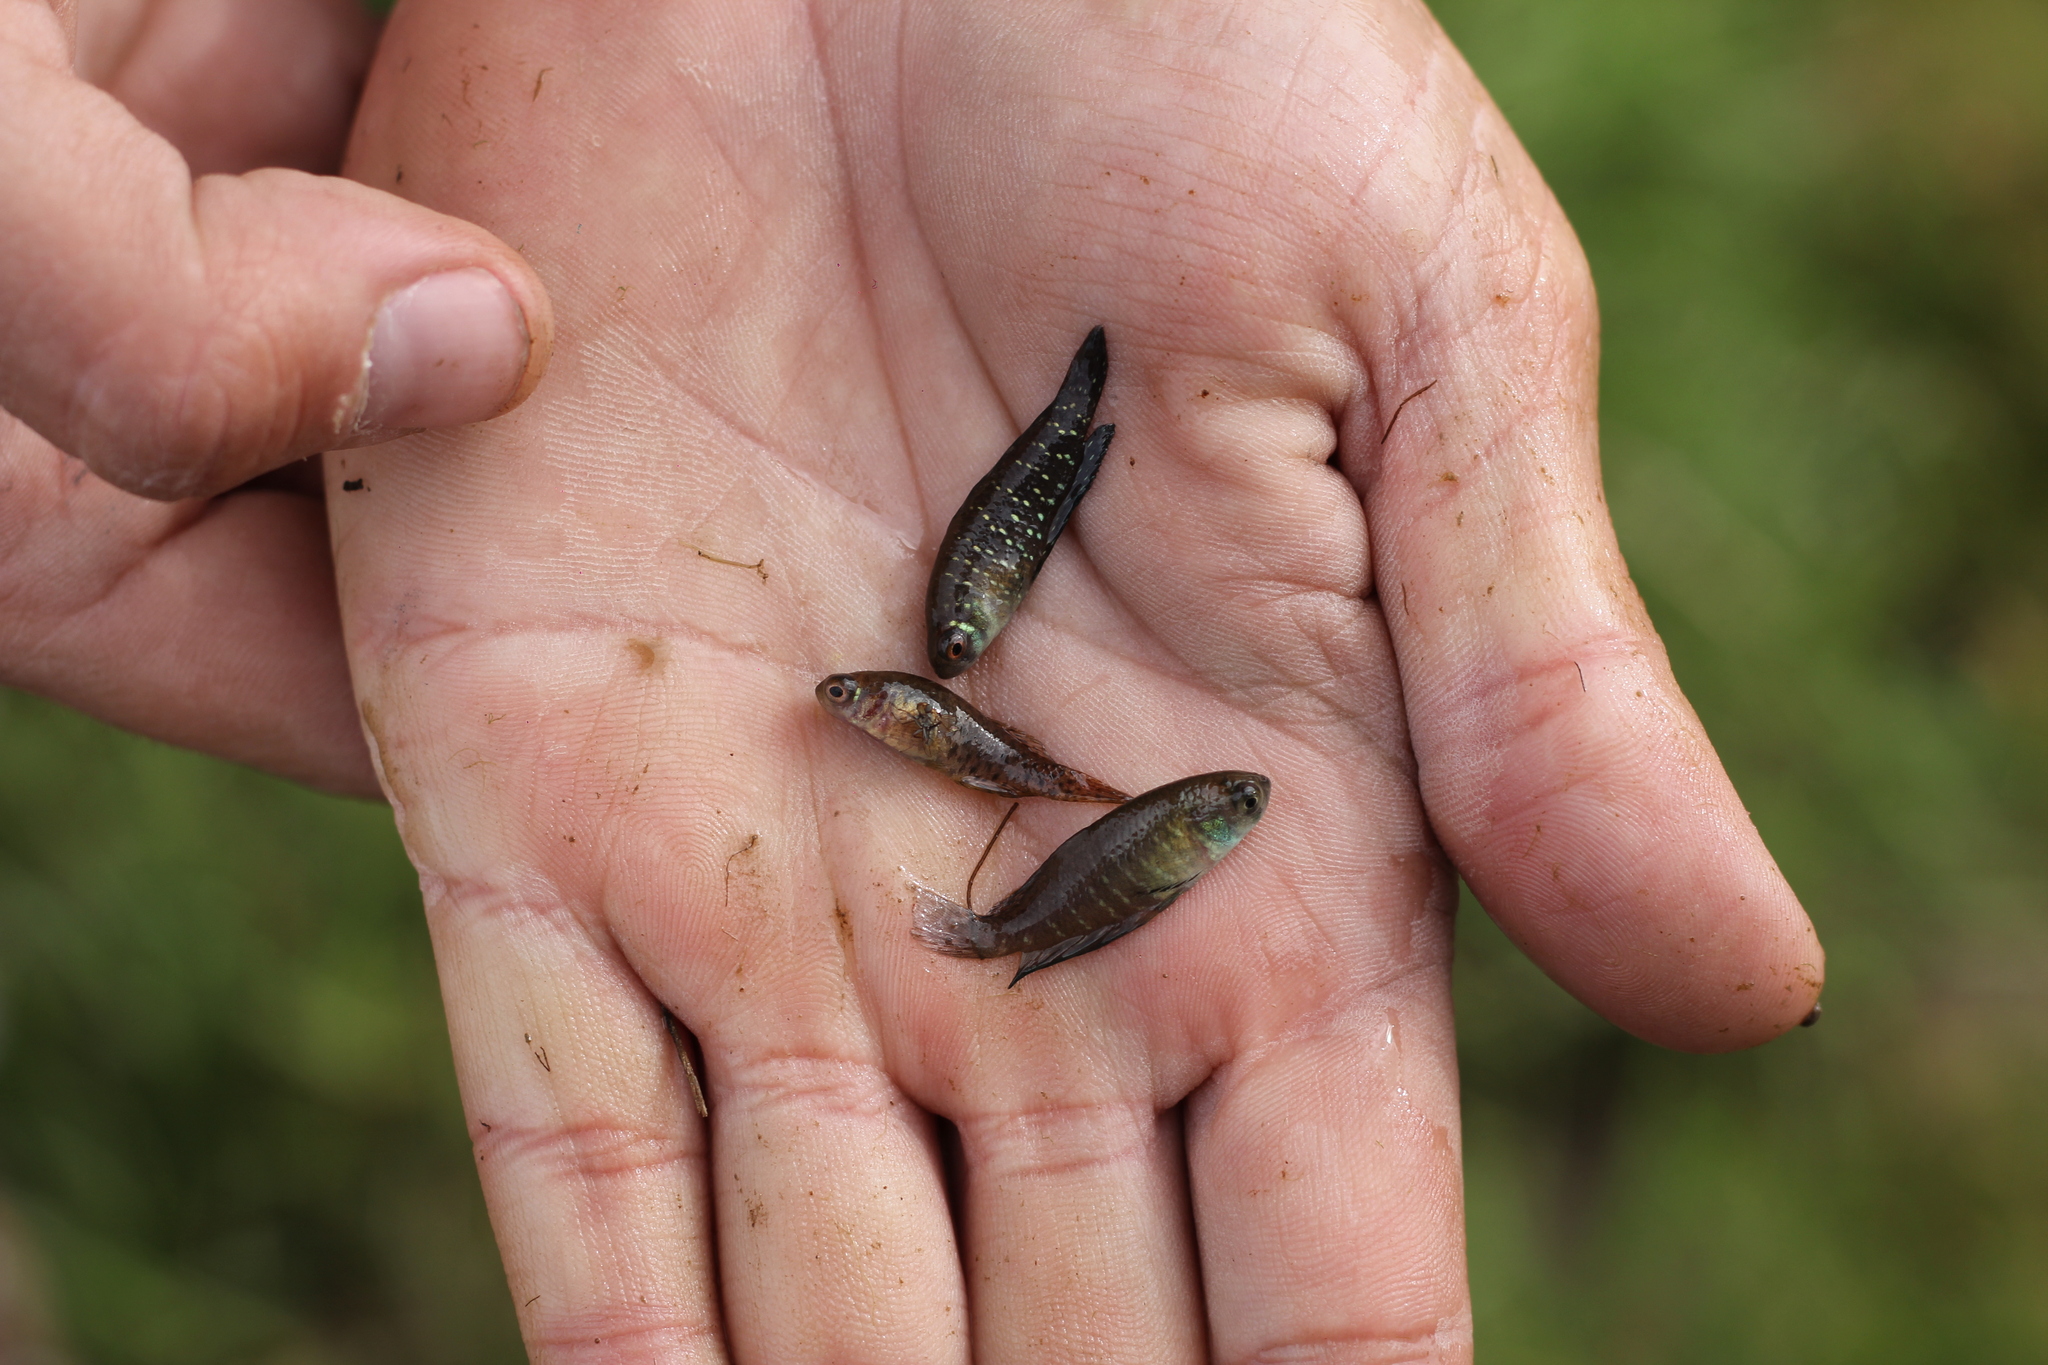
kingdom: Animalia
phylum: Chordata
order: Cyprinodontiformes
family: Rivulidae
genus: Austrolebias
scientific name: Austrolebias
